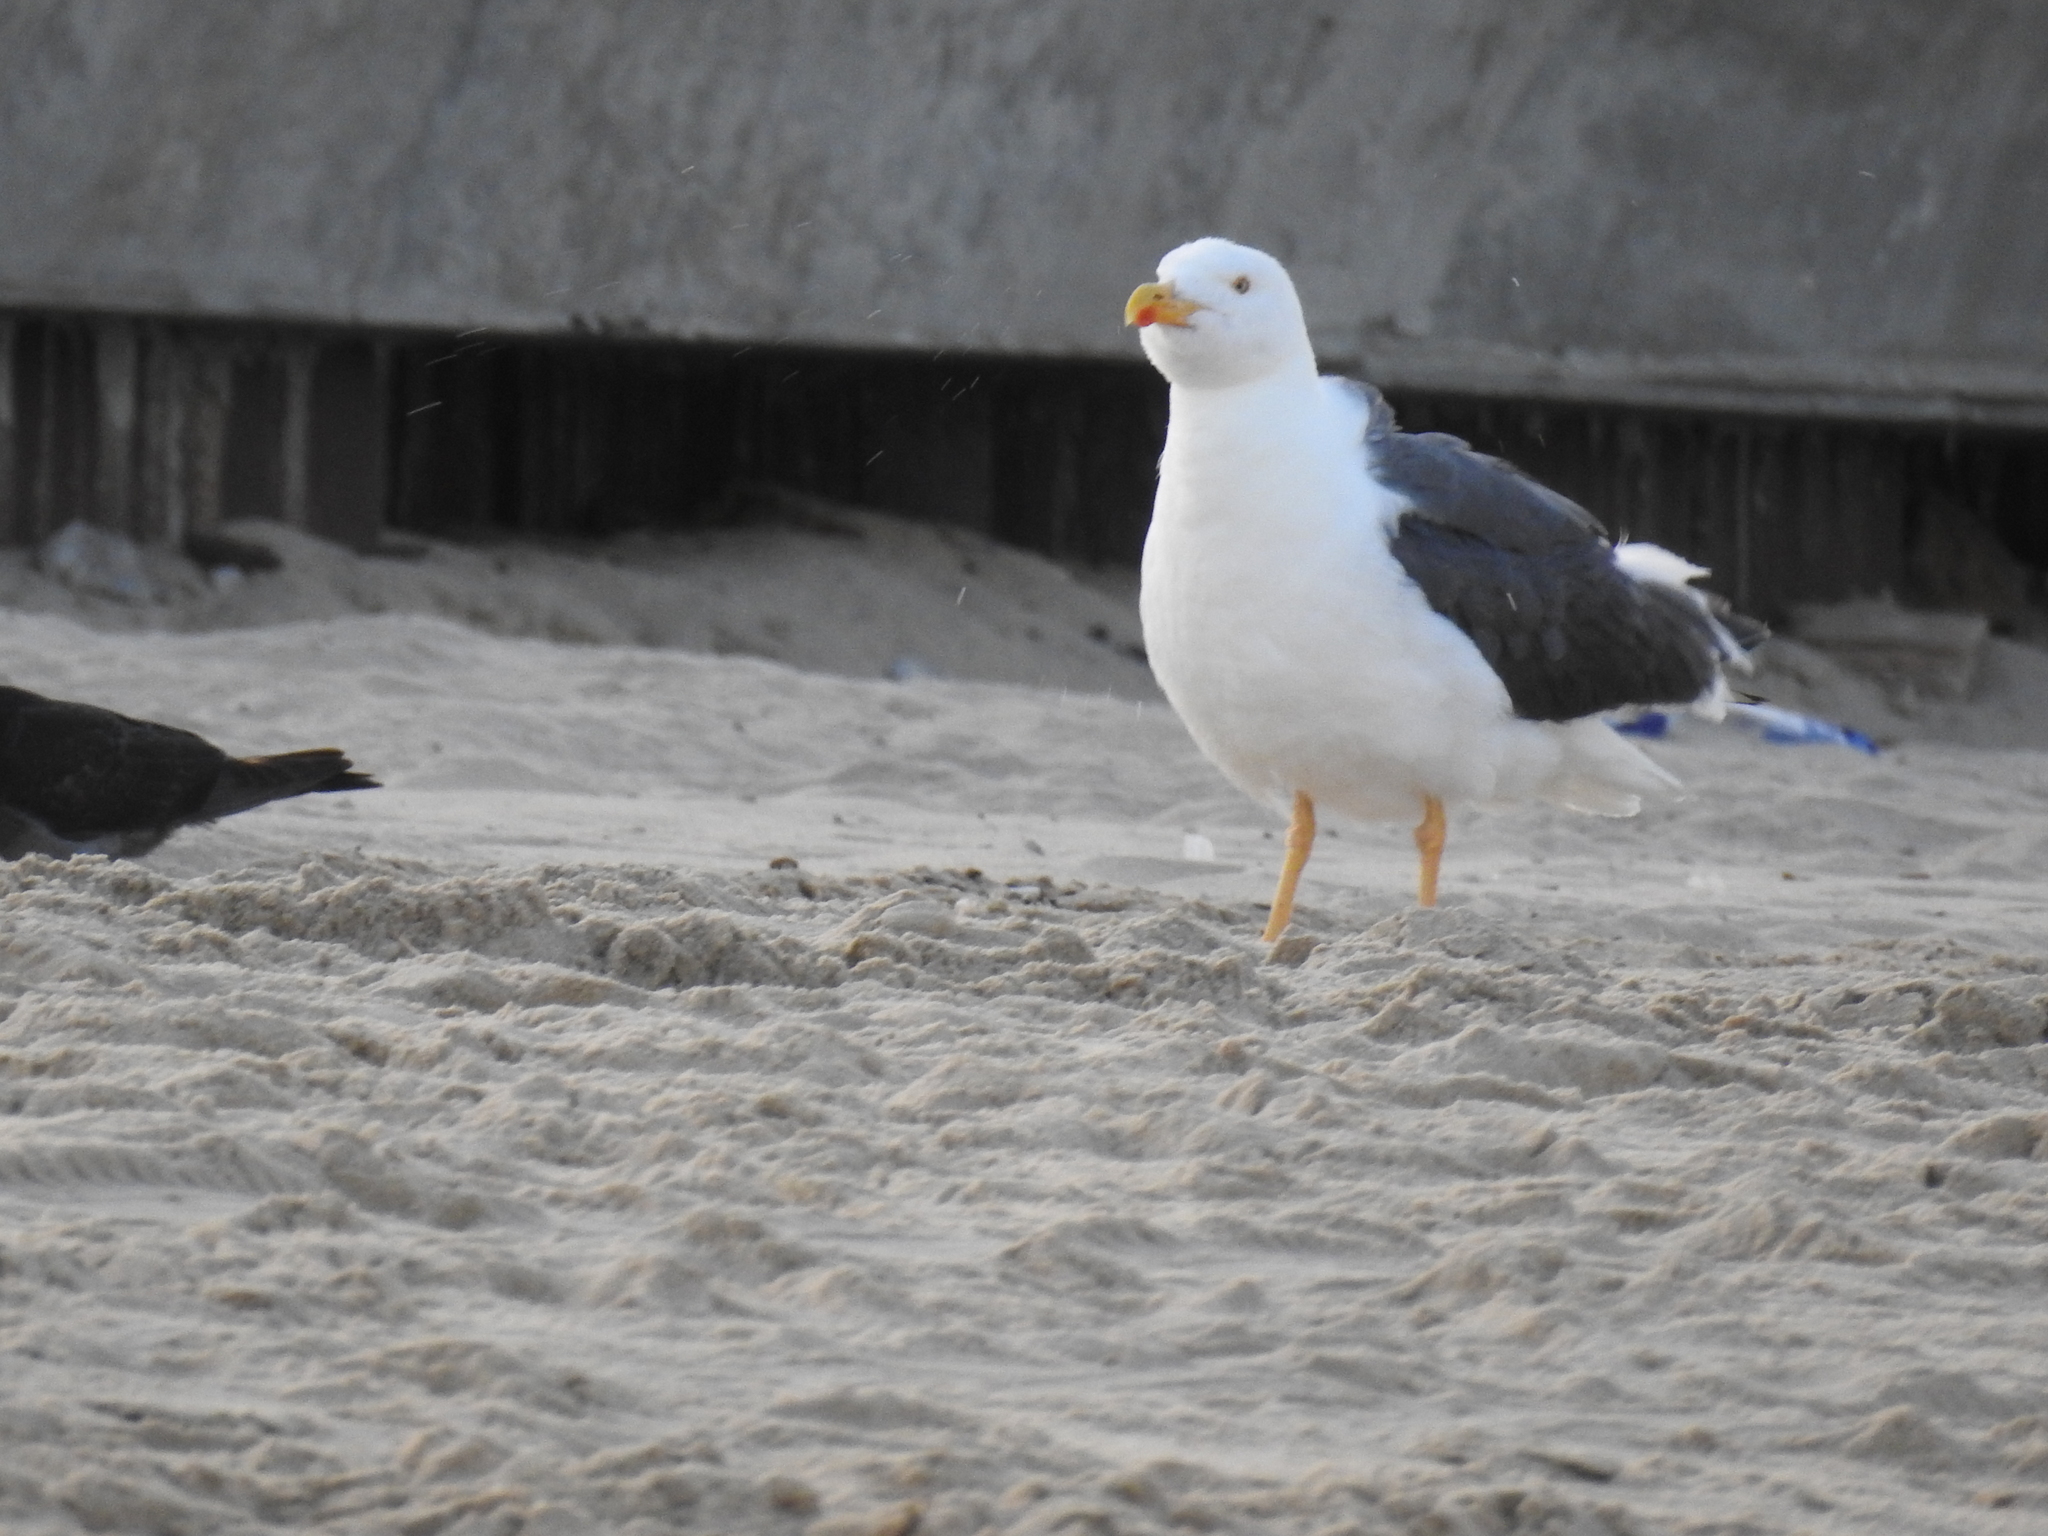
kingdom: Animalia
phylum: Chordata
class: Aves
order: Charadriiformes
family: Laridae
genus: Larus
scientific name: Larus livens
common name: Yellow-footed gull
